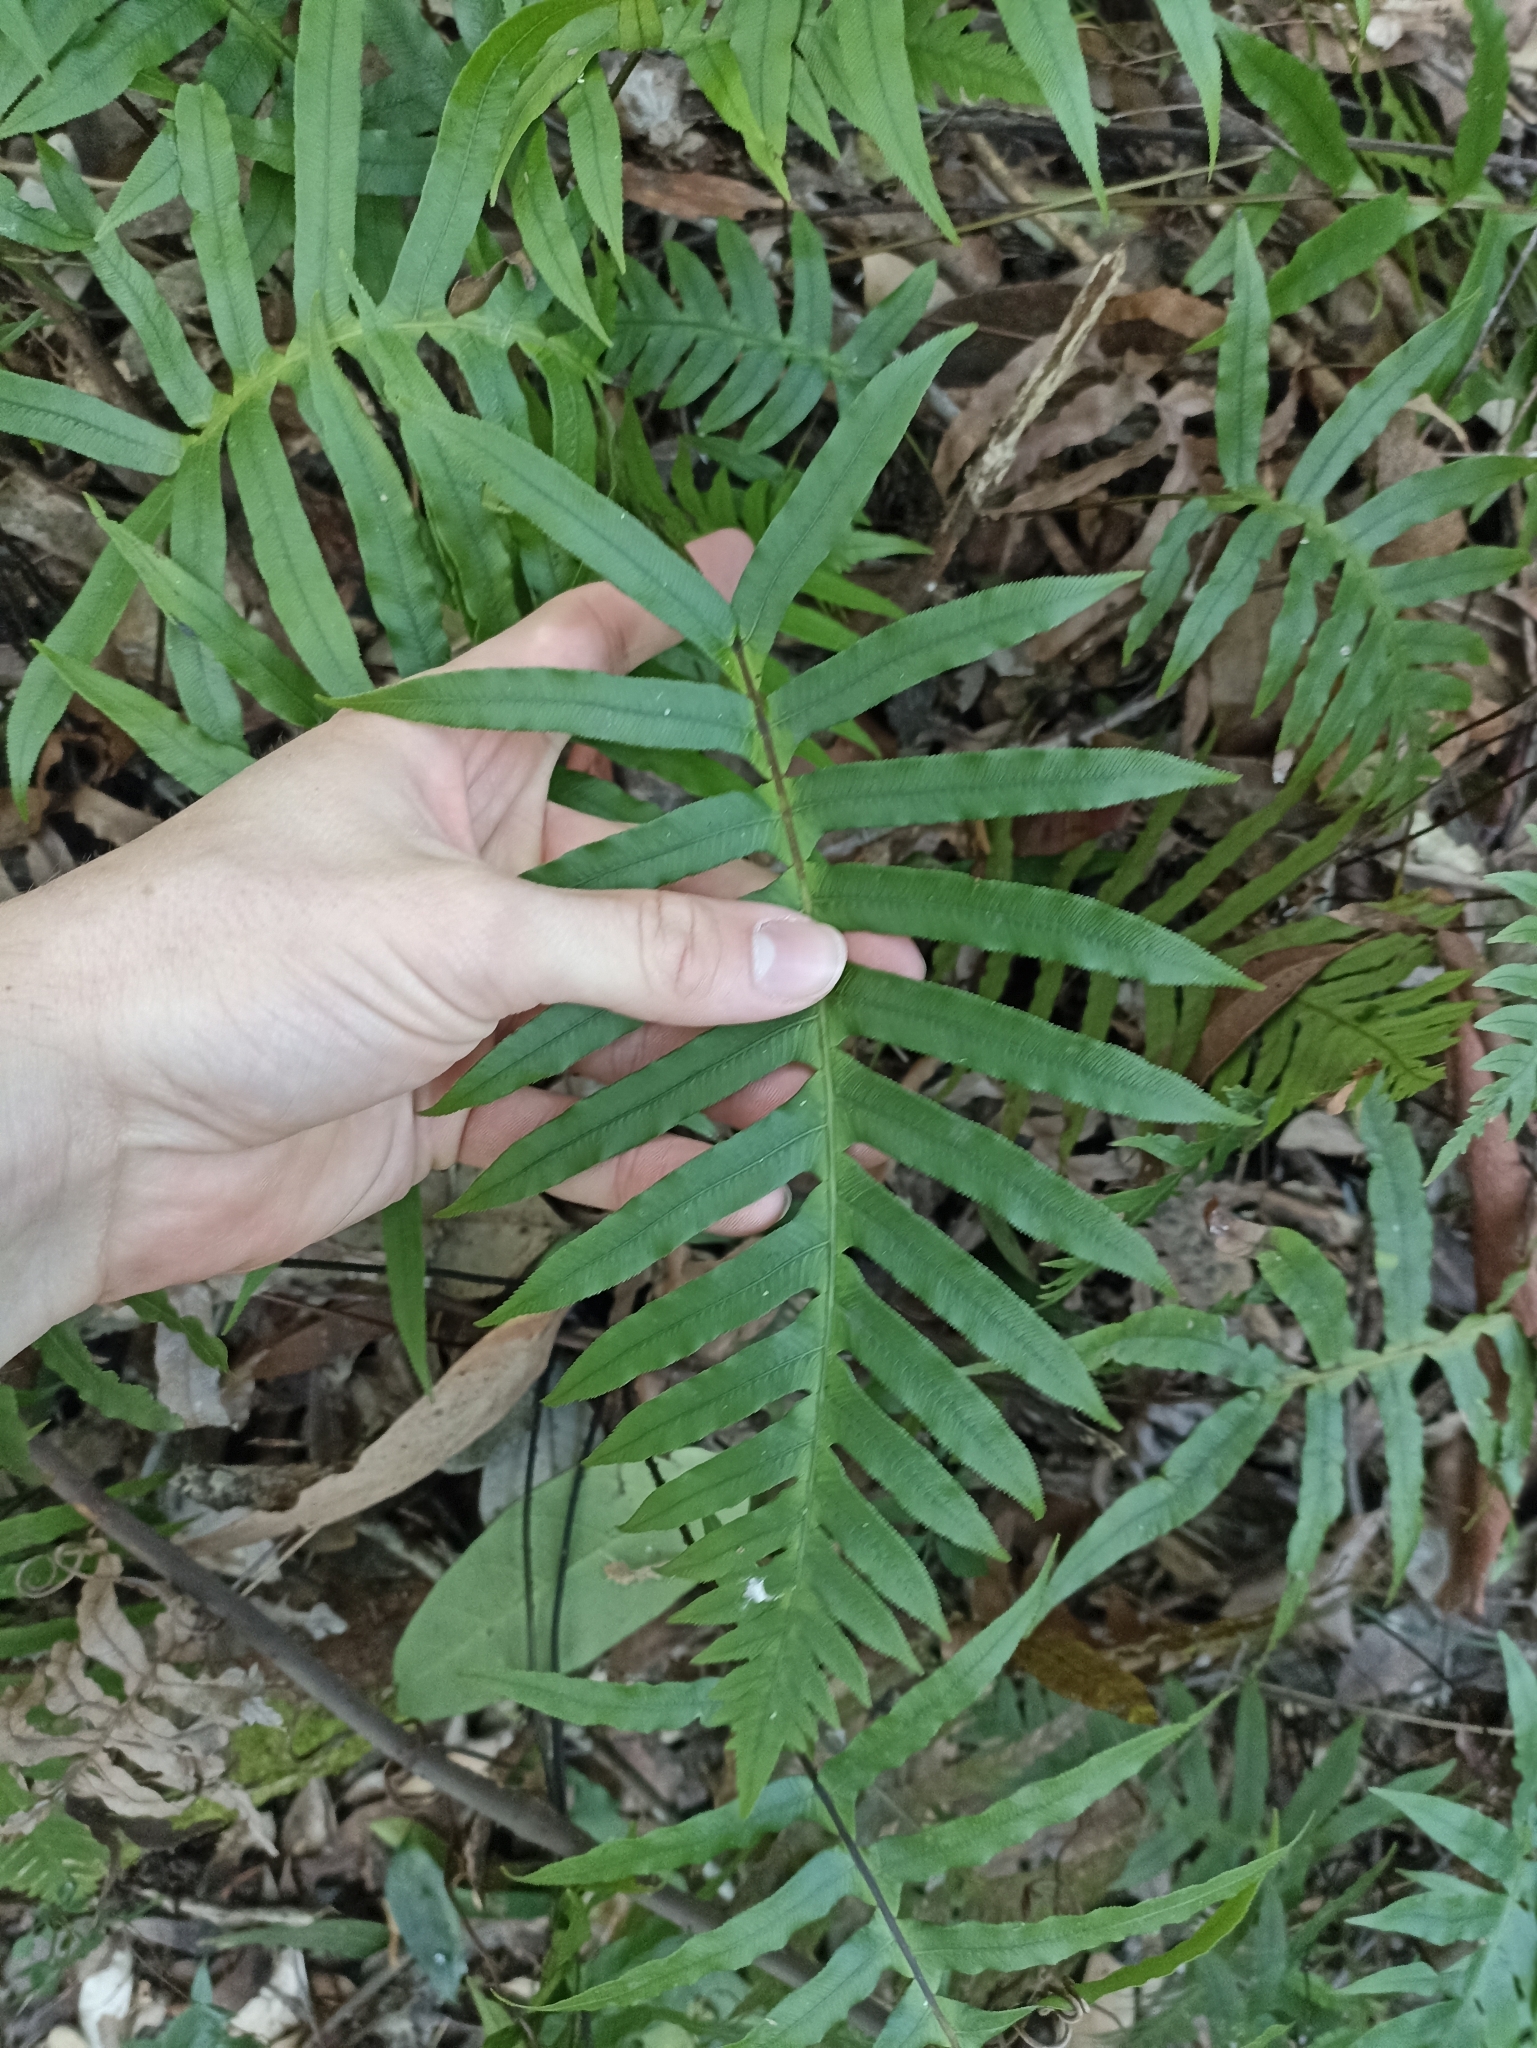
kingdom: Plantae
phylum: Tracheophyta
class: Polypodiopsida
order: Polypodiales
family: Blechnaceae
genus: Oceaniopteris
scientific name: Oceaniopteris cartilaginea
